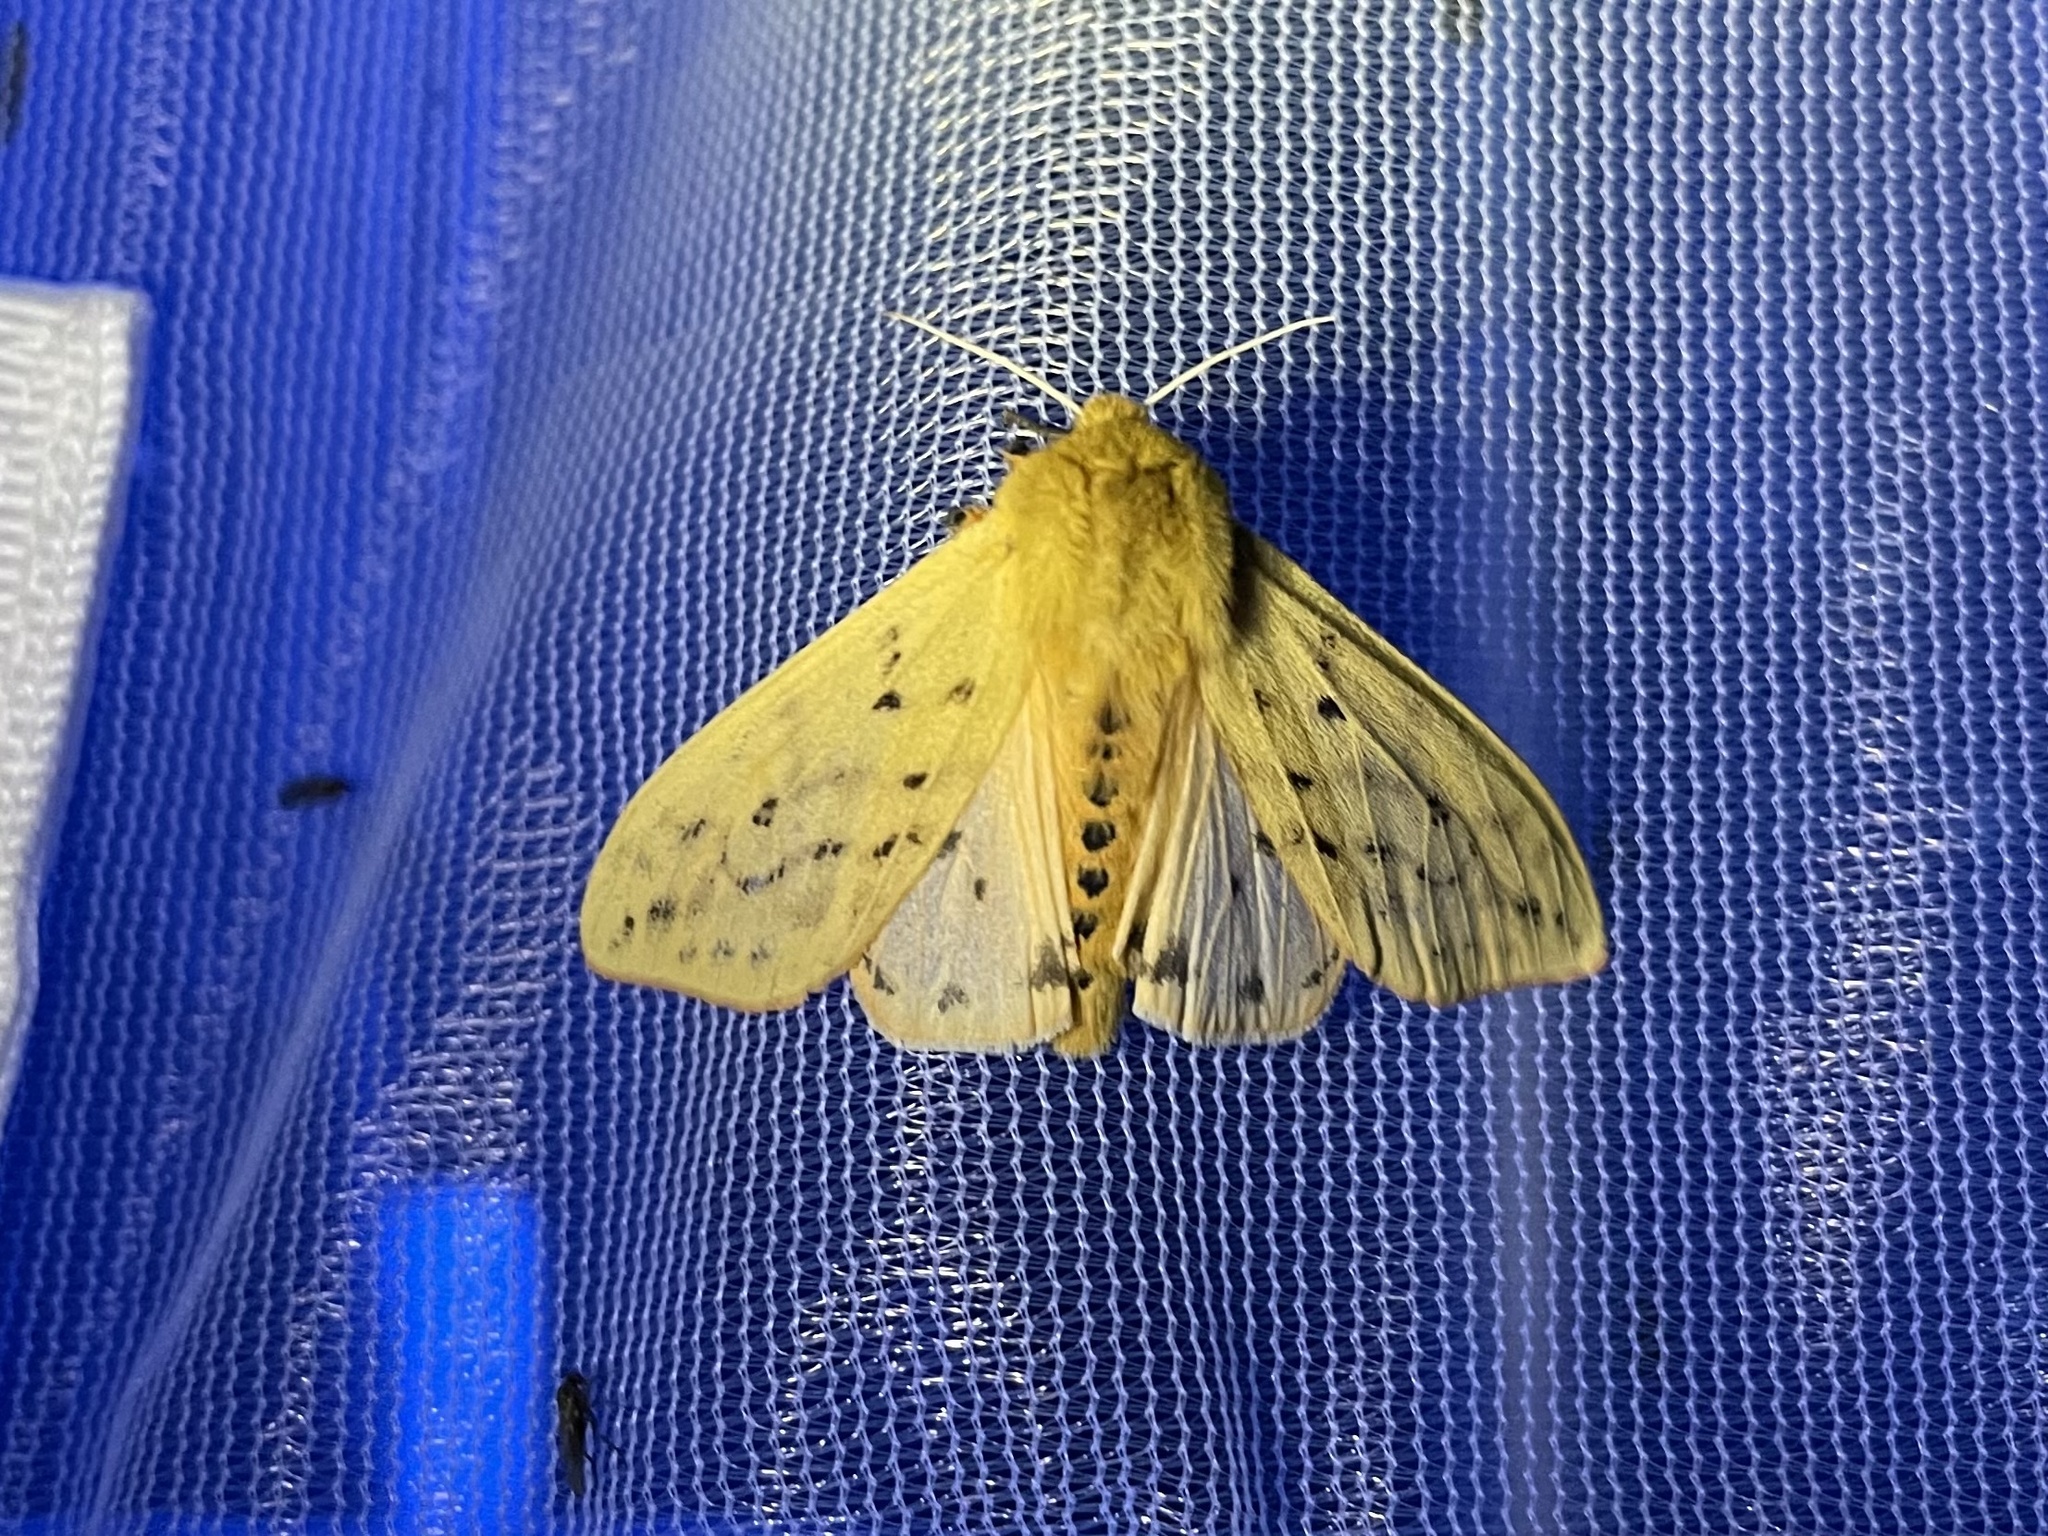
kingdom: Animalia
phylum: Arthropoda
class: Insecta
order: Lepidoptera
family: Erebidae
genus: Pyrrharctia
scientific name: Pyrrharctia isabella
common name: Isabella tiger moth
